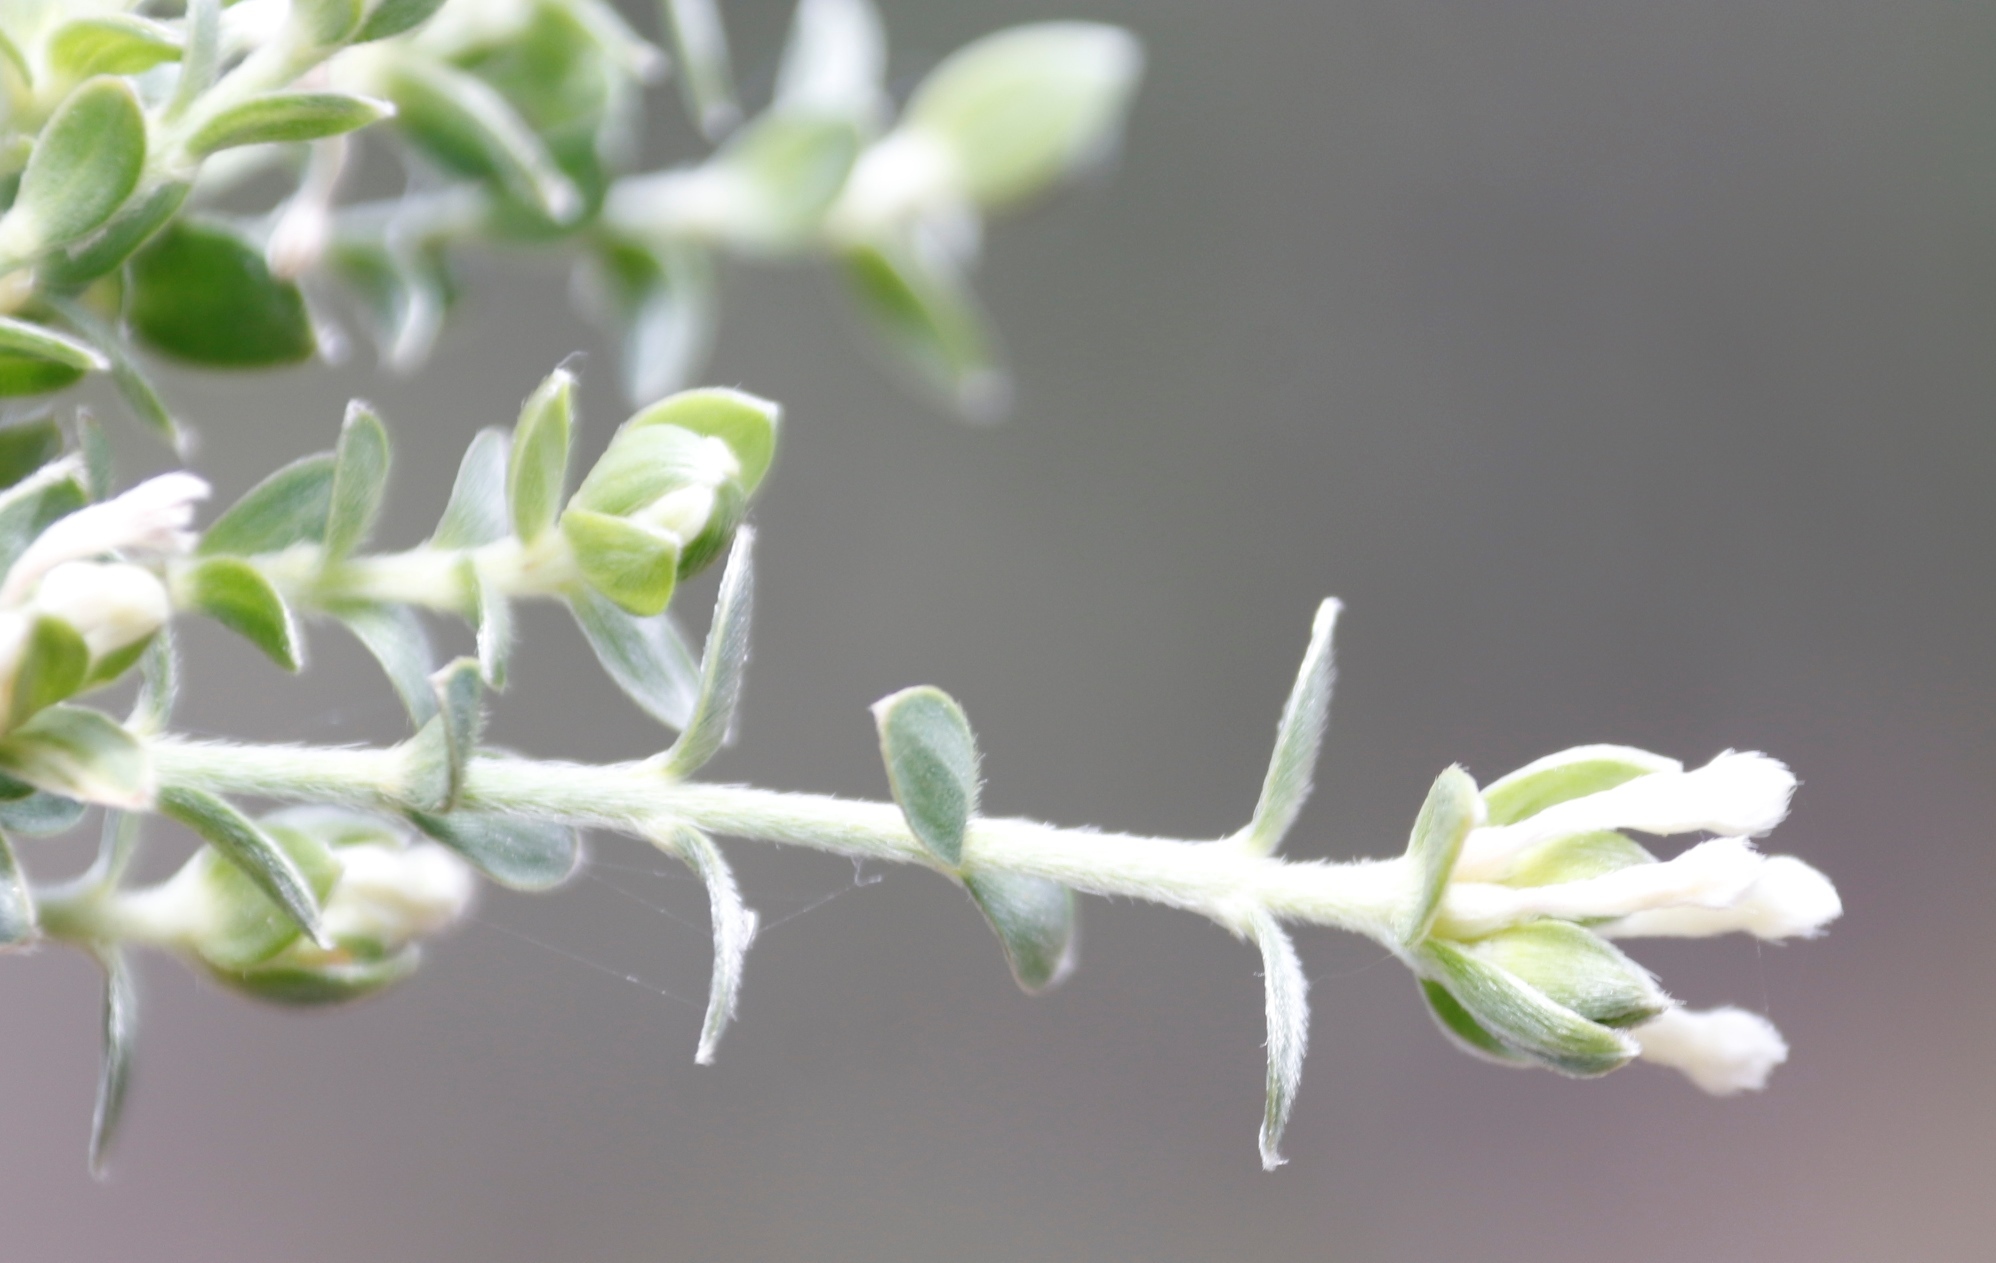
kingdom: Plantae
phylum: Tracheophyta
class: Magnoliopsida
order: Malvales
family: Thymelaeaceae
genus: Gnidia
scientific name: Gnidia sericea
